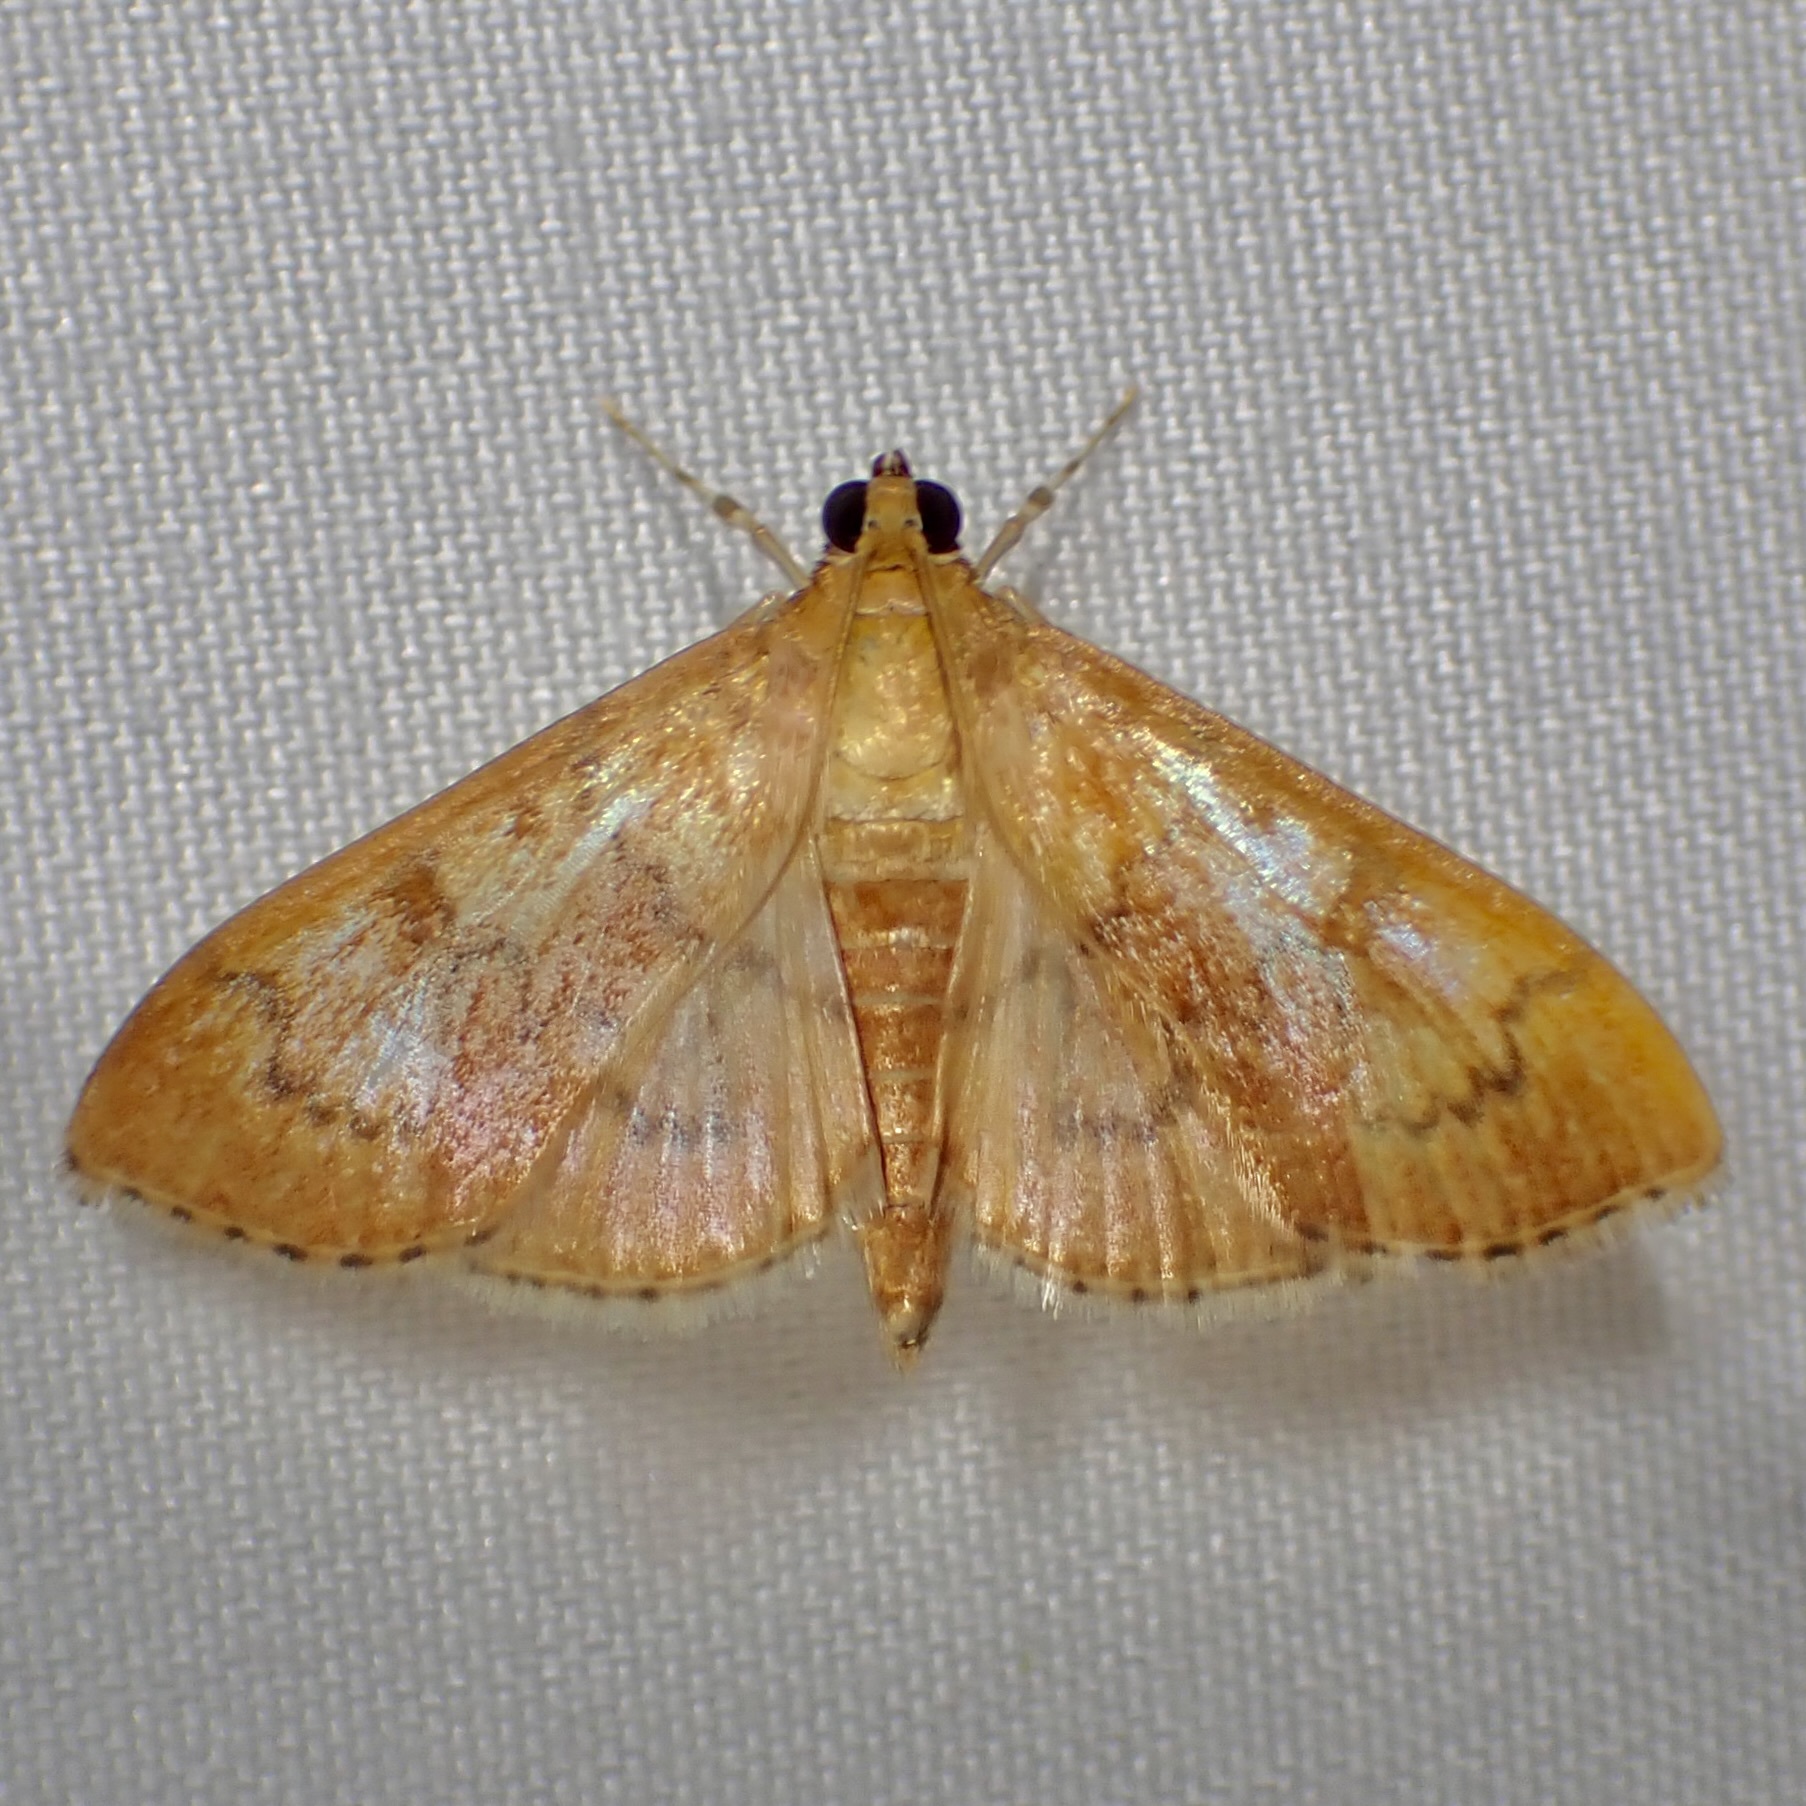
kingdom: Animalia
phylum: Arthropoda
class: Insecta
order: Lepidoptera
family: Crambidae
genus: Pilocrocis
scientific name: Pilocrocis dryalis
